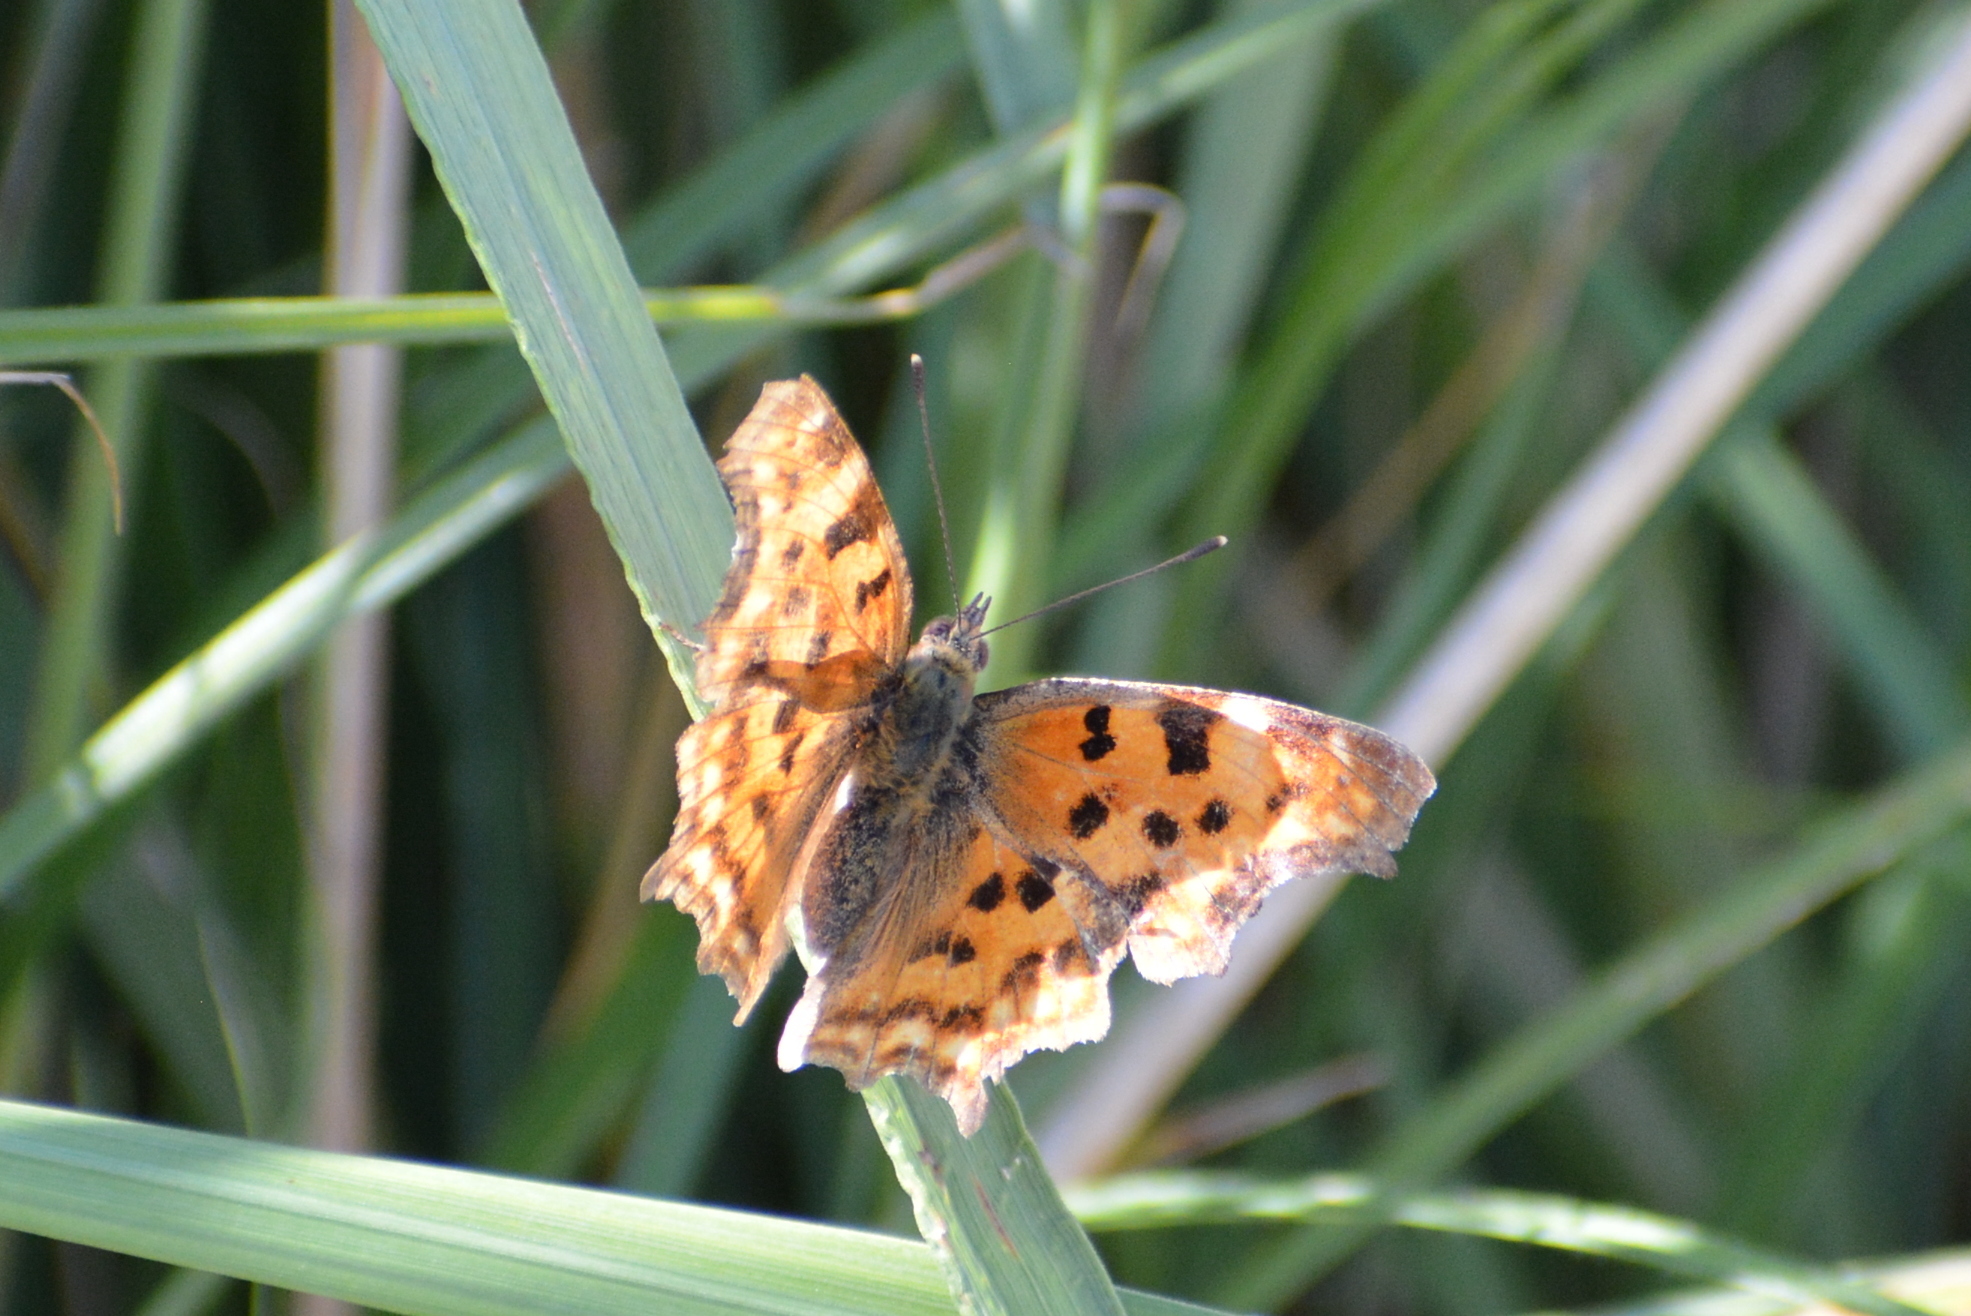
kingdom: Animalia
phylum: Arthropoda
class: Insecta
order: Lepidoptera
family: Nymphalidae
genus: Polygonia
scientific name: Polygonia c-album
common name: Comma
